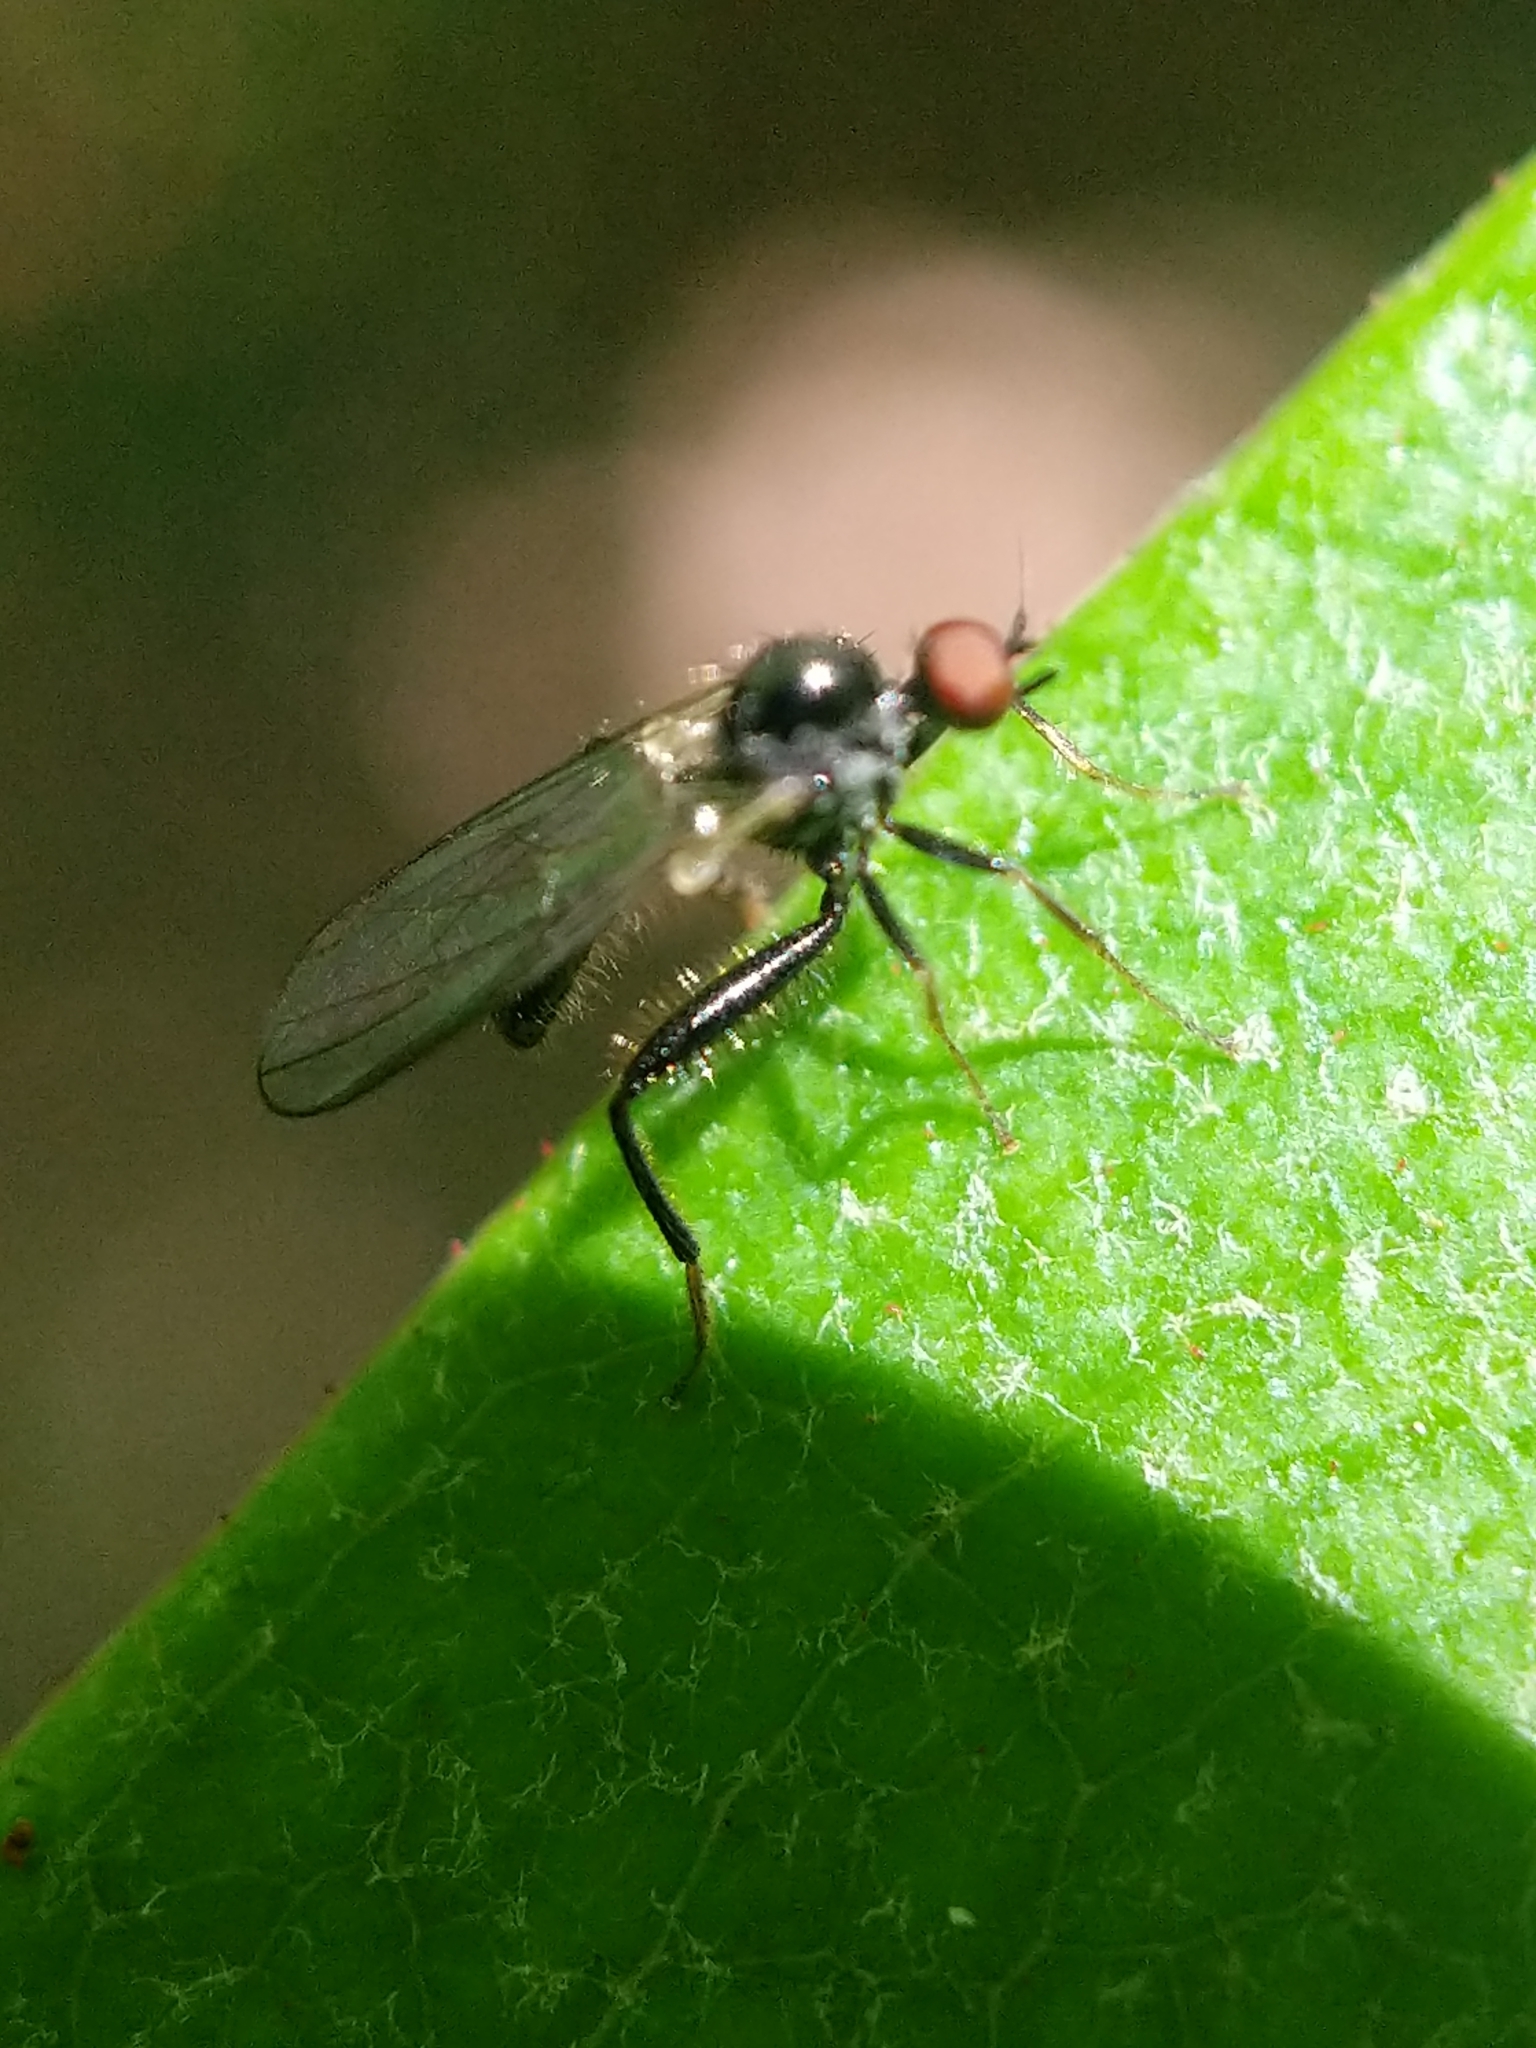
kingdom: Animalia
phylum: Arthropoda
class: Insecta
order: Diptera
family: Hybotidae
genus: Hybos
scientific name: Hybos reversus
